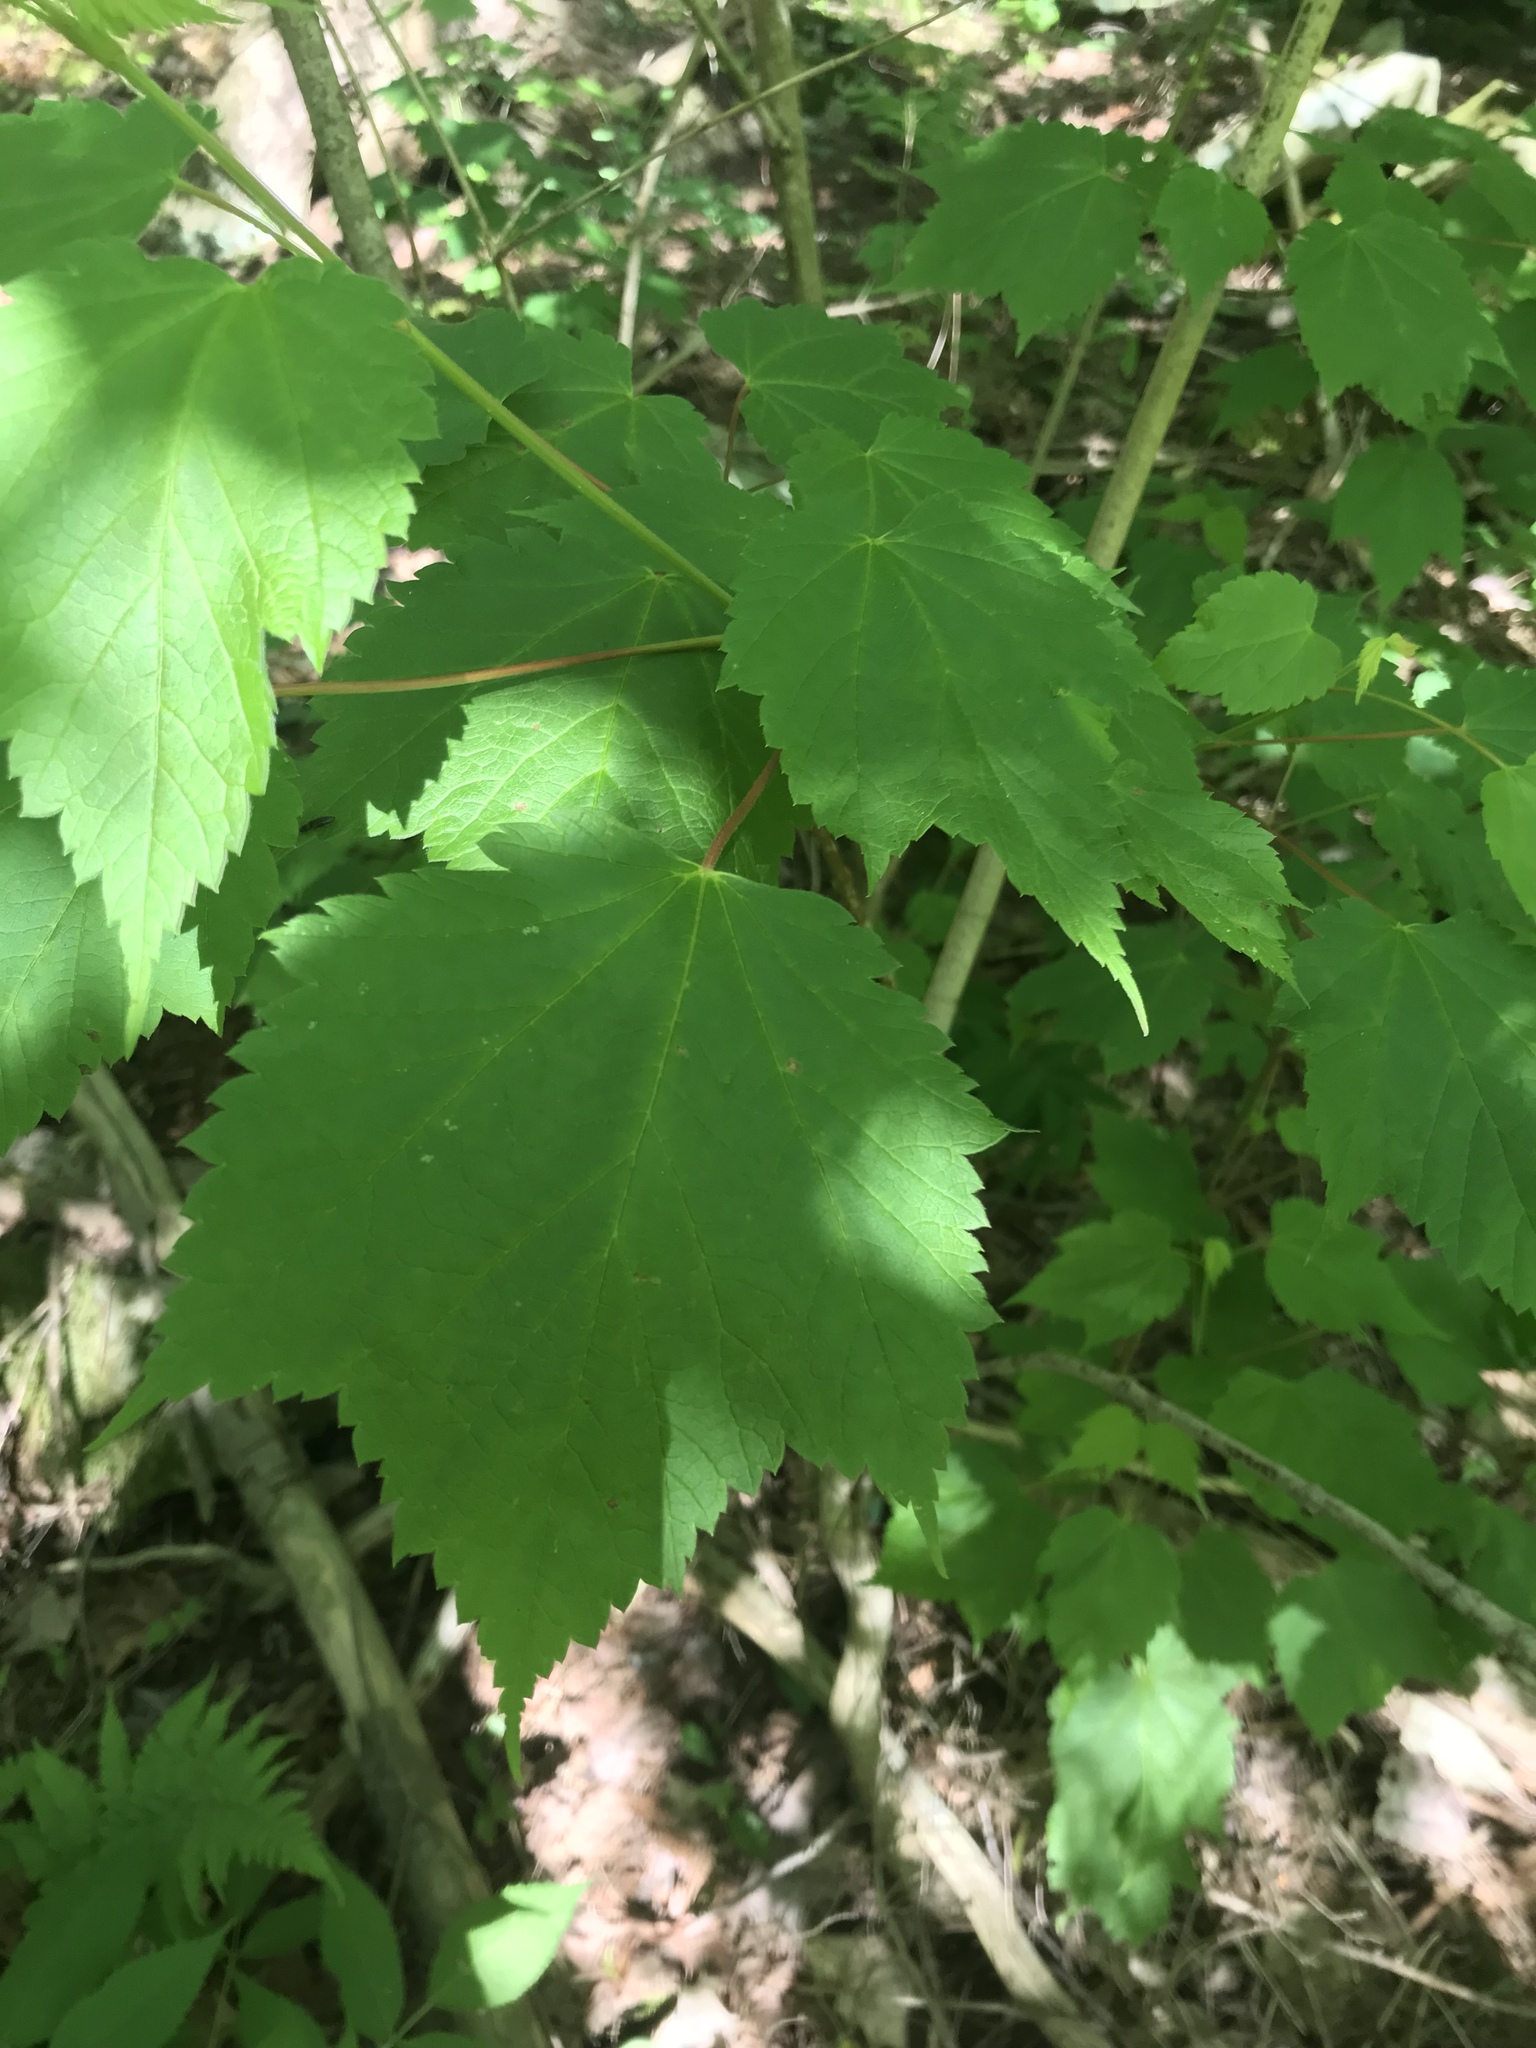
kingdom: Plantae
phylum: Tracheophyta
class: Magnoliopsida
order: Sapindales
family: Sapindaceae
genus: Acer
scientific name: Acer spicatum
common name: Mountain maple
